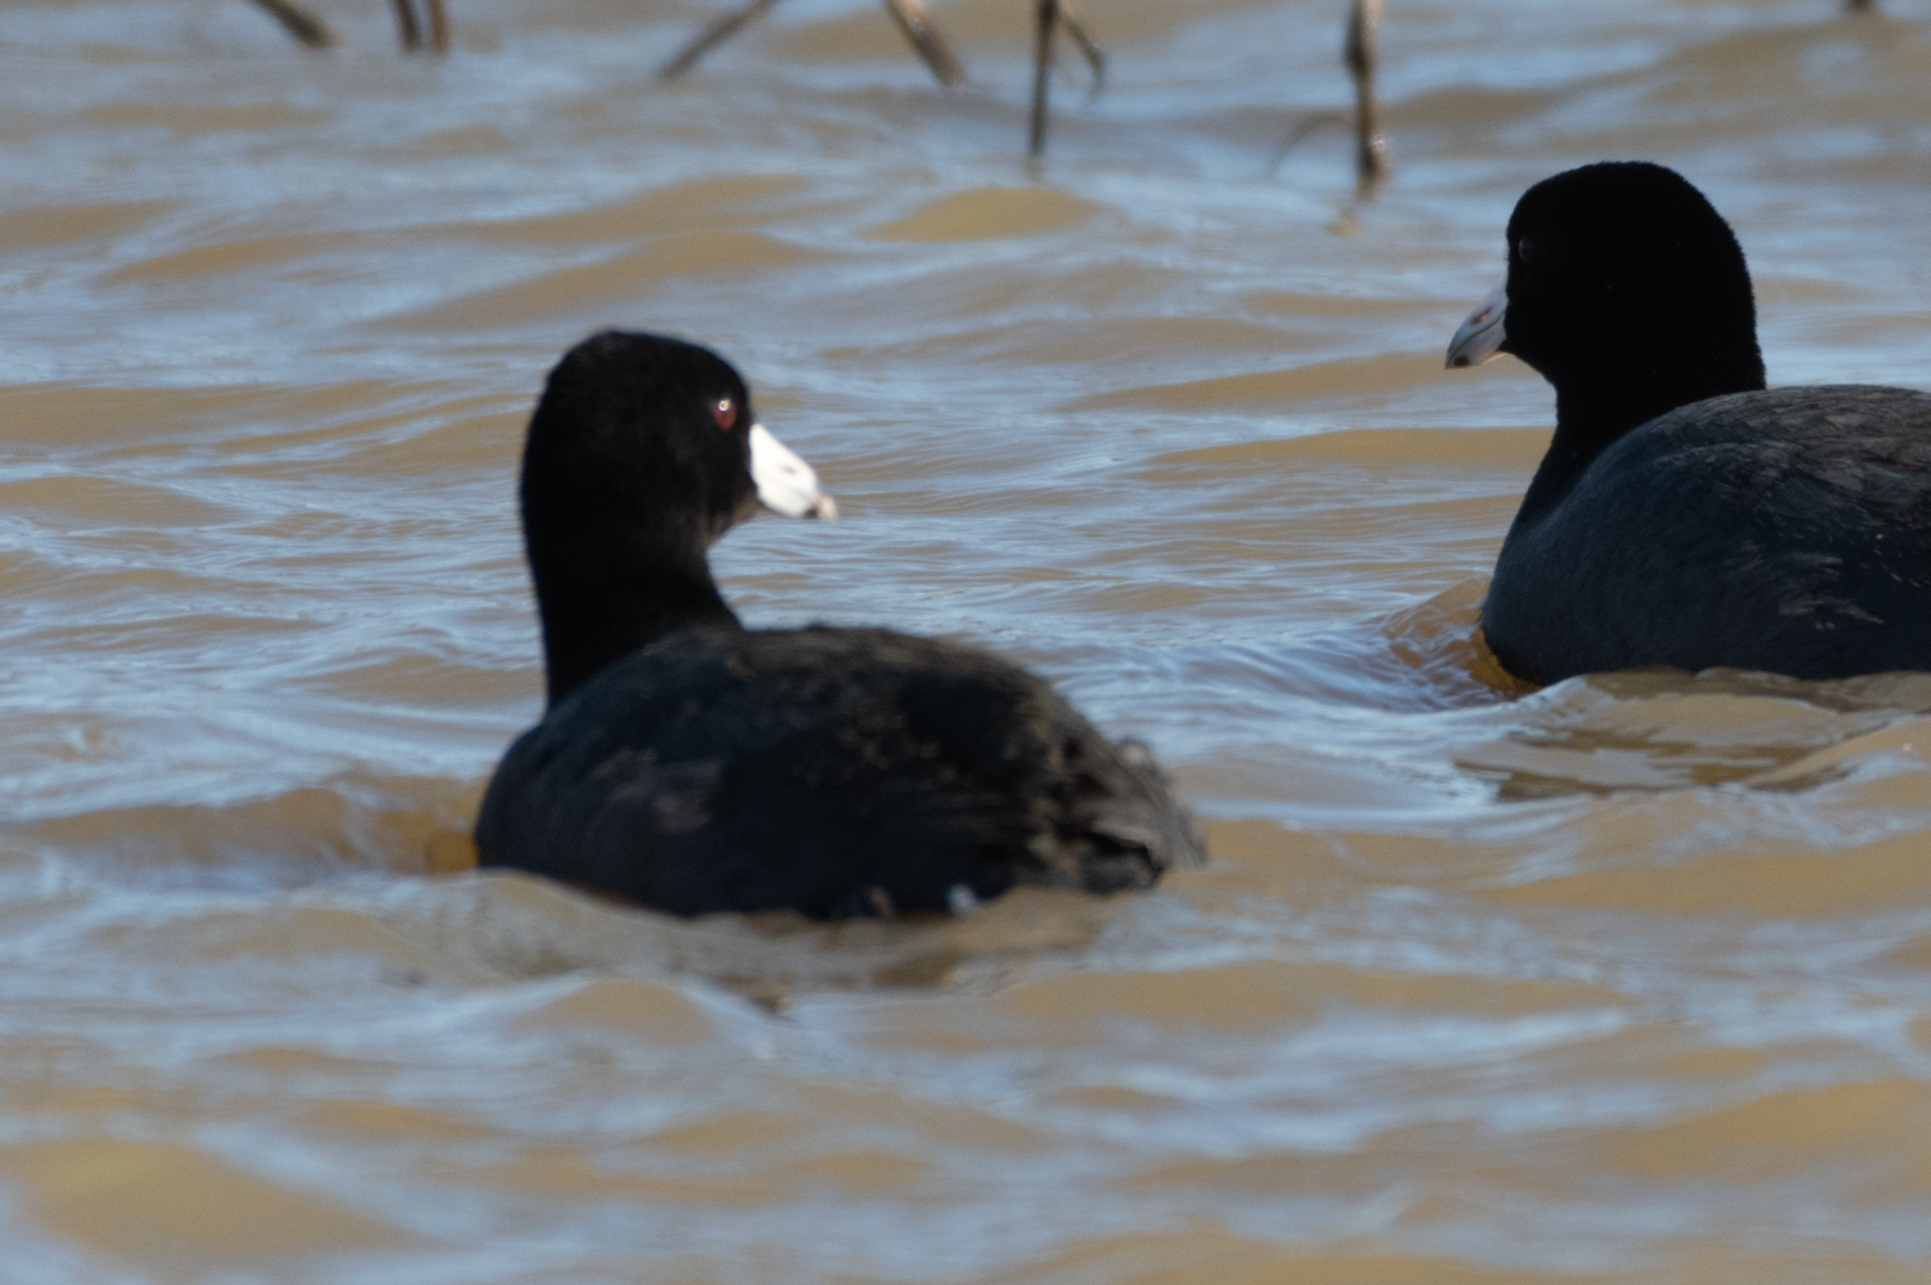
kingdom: Animalia
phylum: Chordata
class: Aves
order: Gruiformes
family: Rallidae
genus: Fulica
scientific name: Fulica americana
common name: American coot
